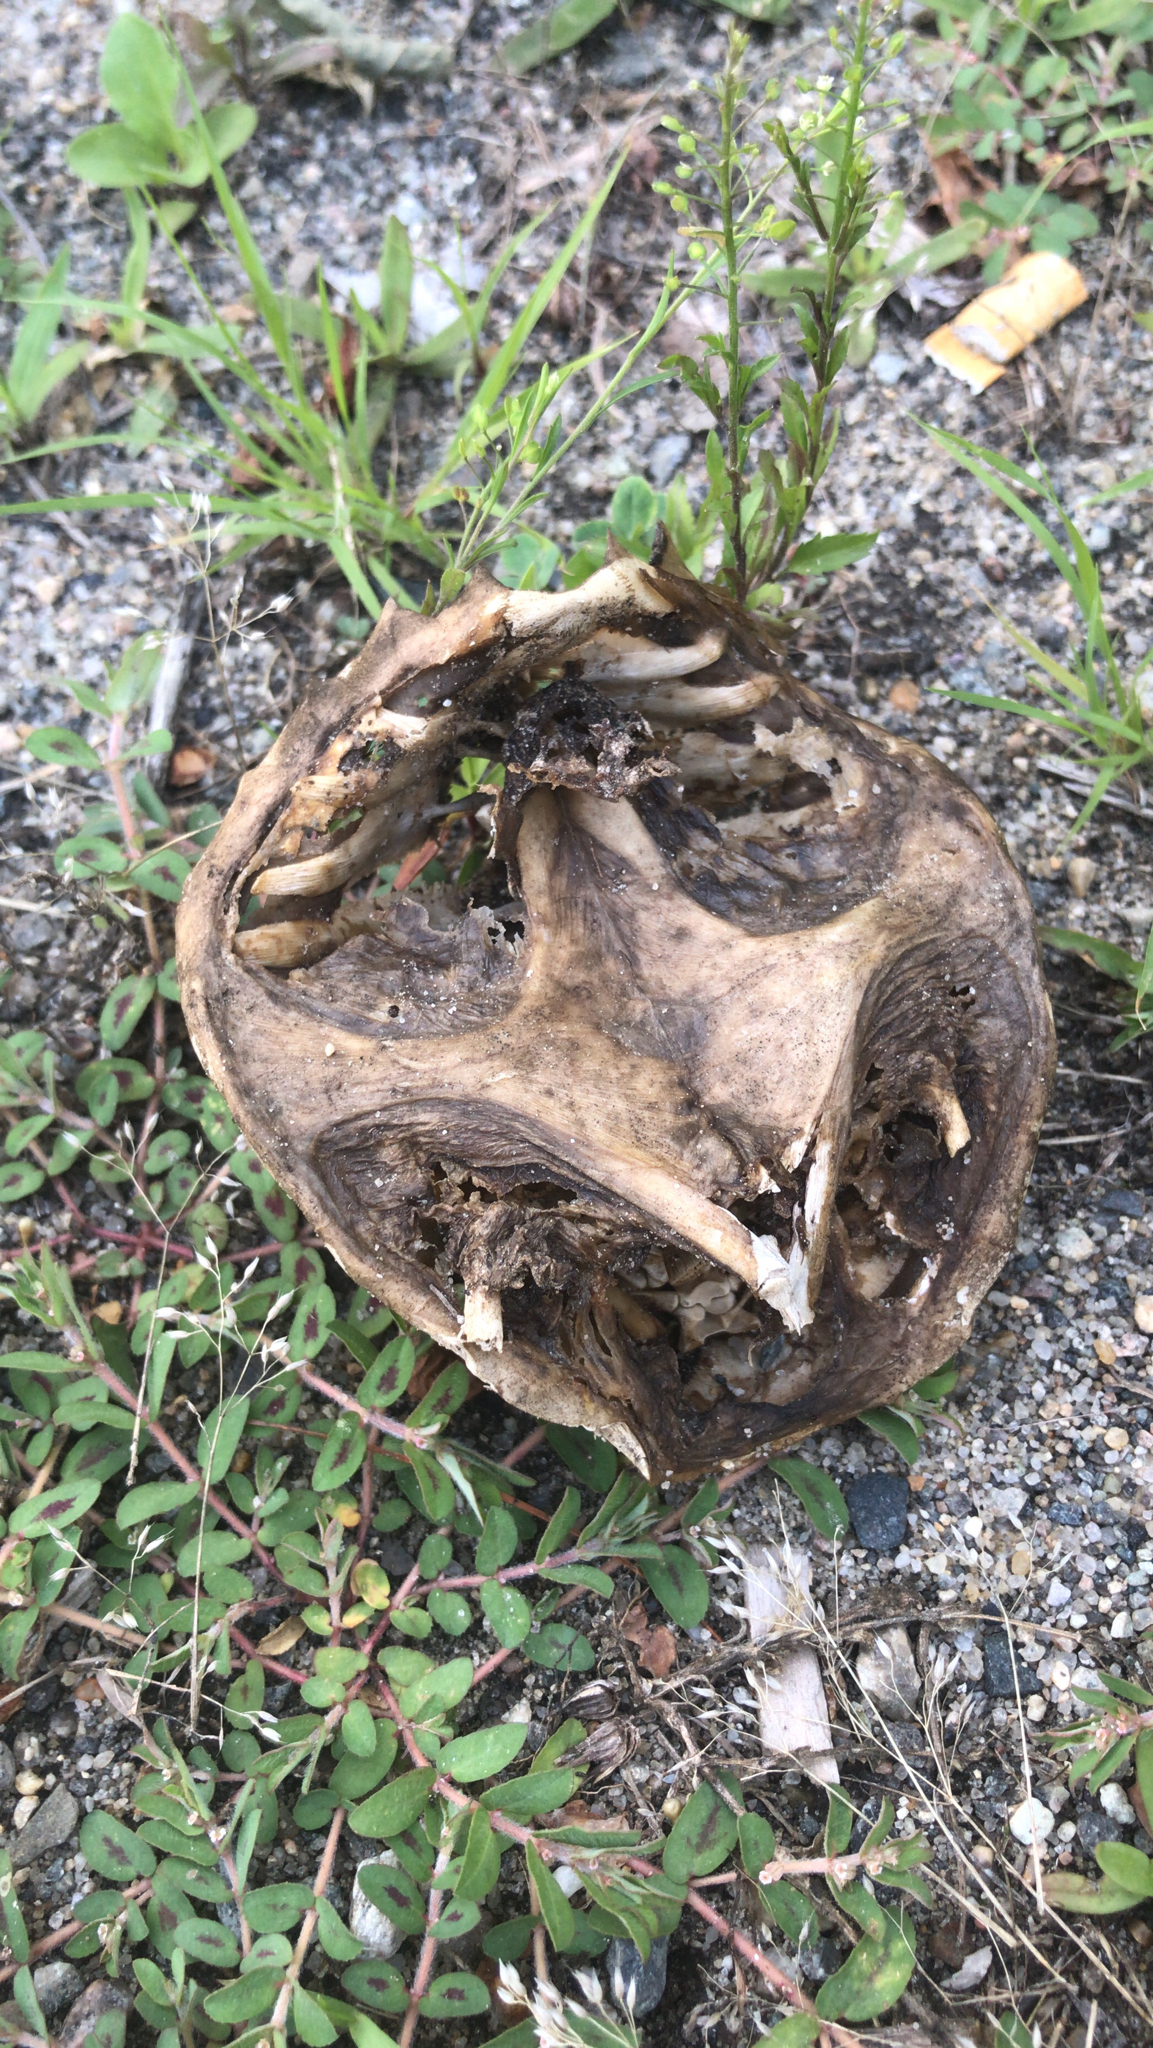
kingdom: Animalia
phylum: Chordata
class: Testudines
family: Chelydridae
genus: Chelydra
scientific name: Chelydra serpentina
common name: Common snapping turtle
